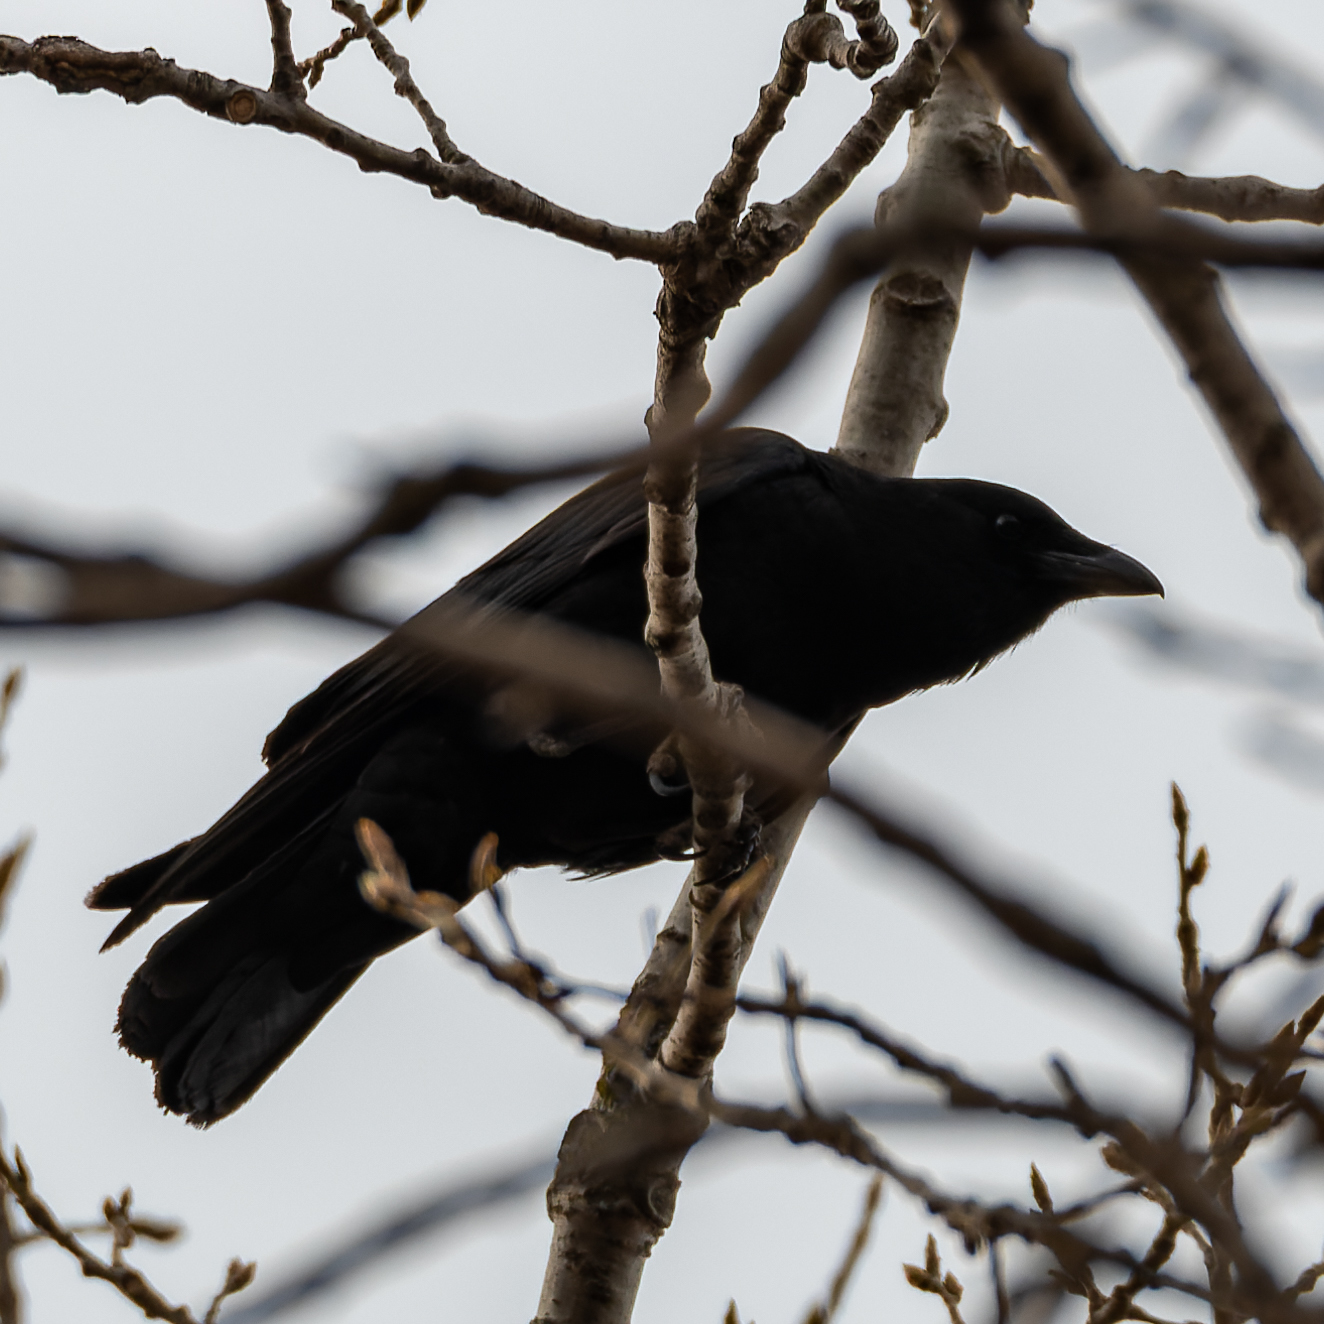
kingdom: Animalia
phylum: Chordata
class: Aves
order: Passeriformes
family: Corvidae
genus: Corvus
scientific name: Corvus brachyrhynchos
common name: American crow
